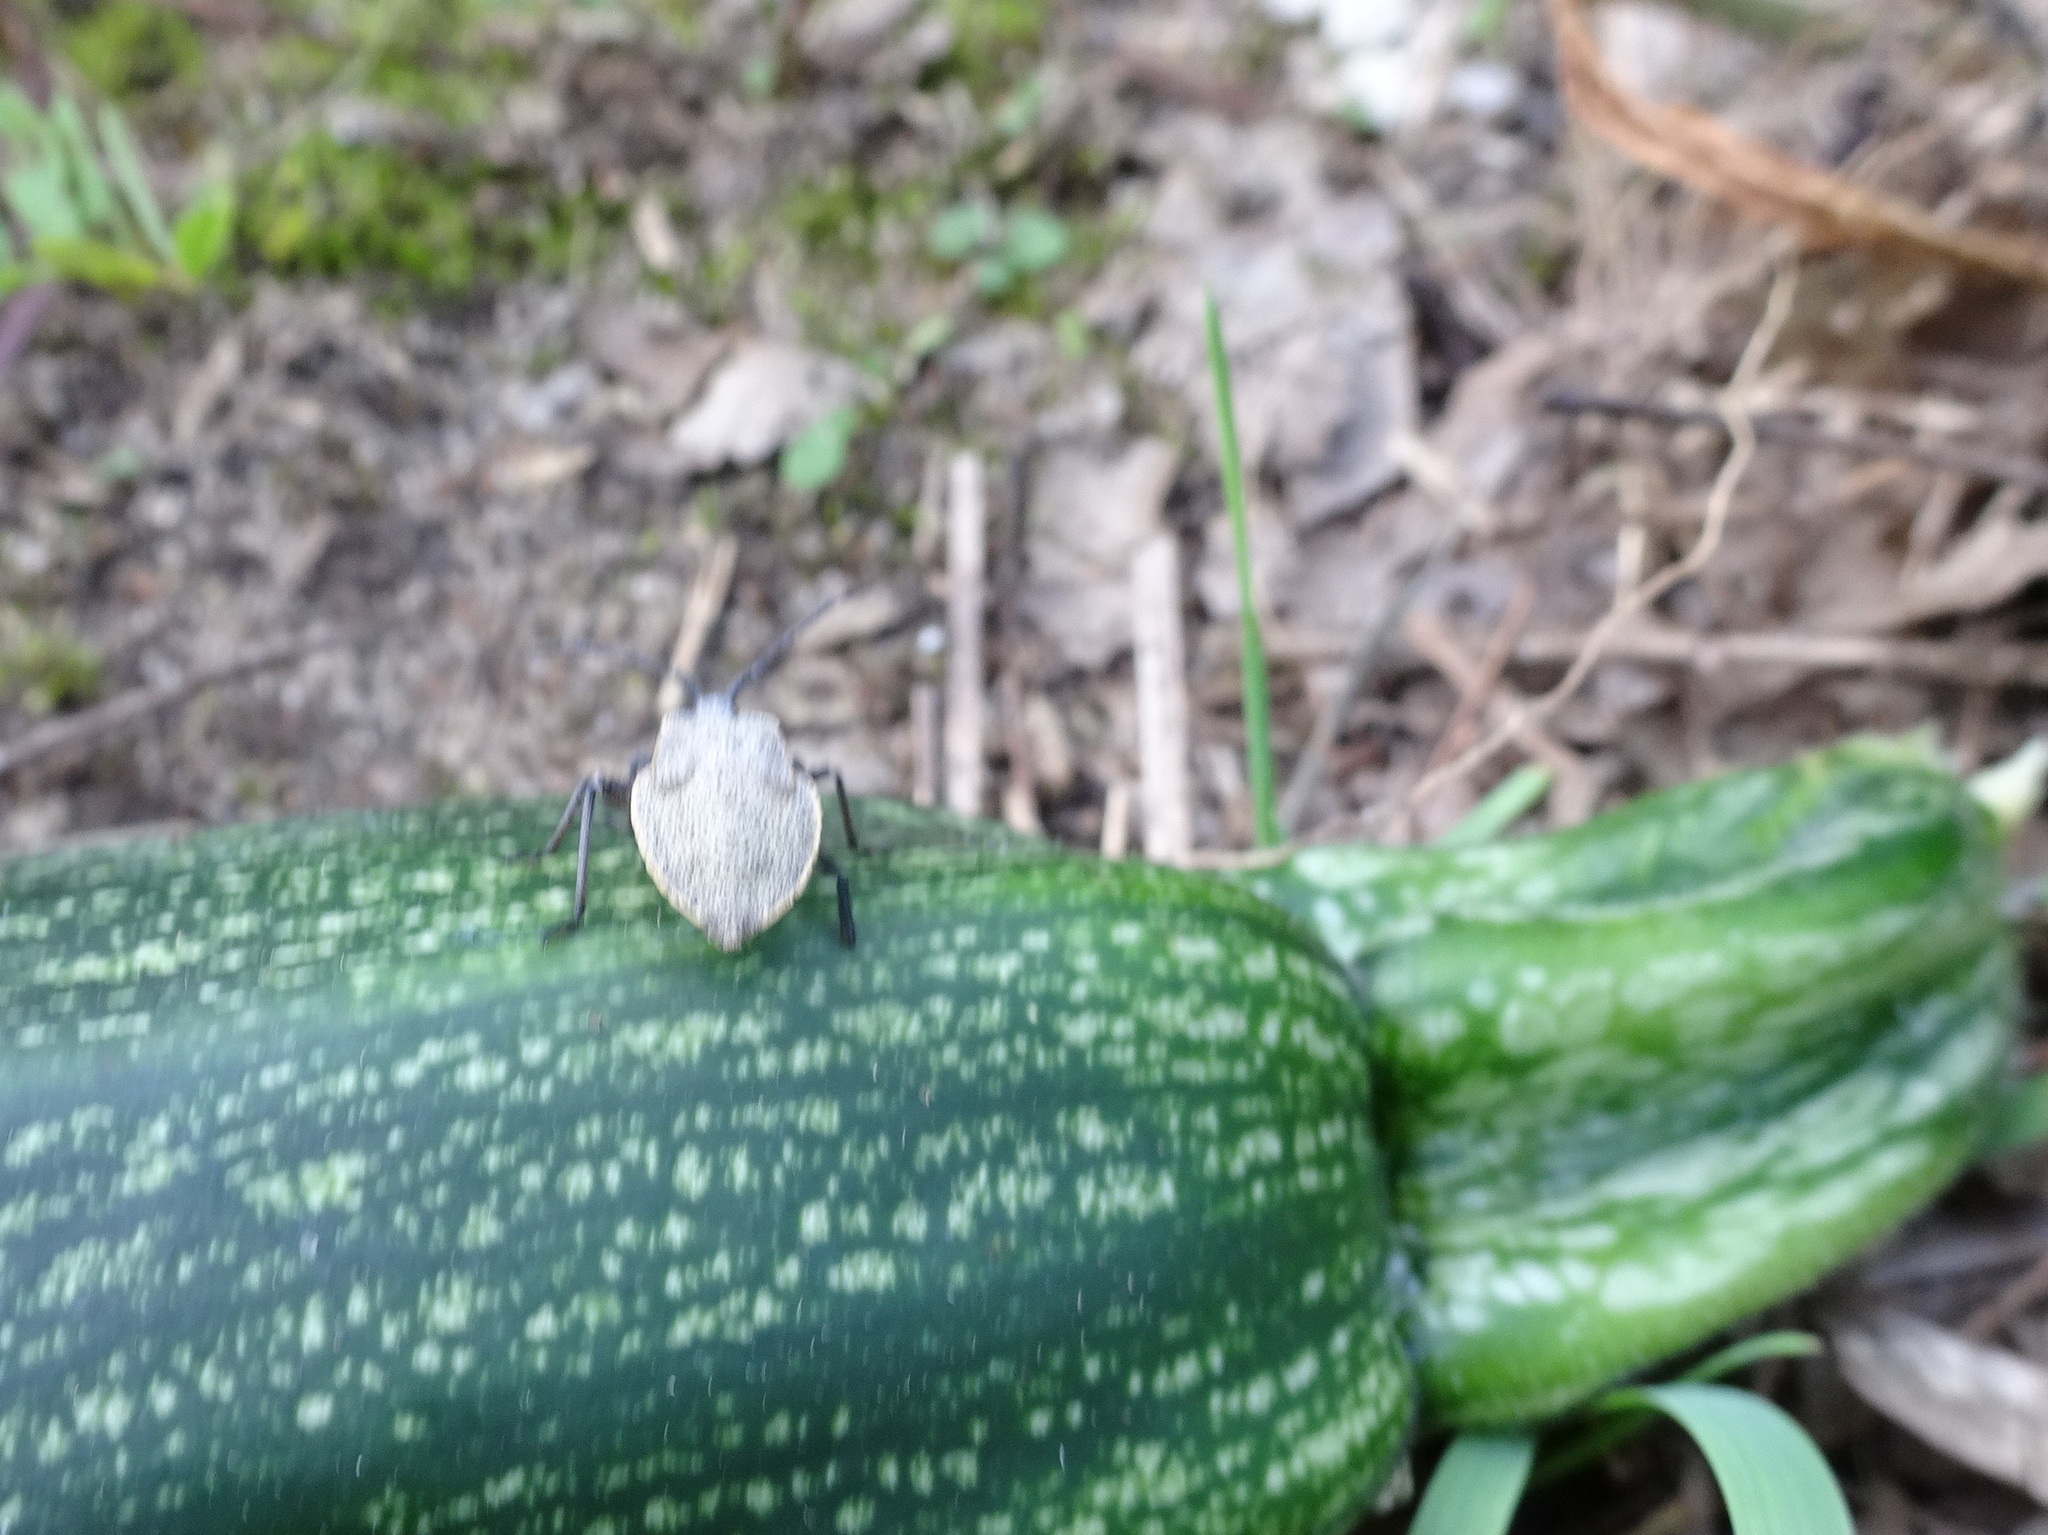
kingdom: Animalia
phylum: Arthropoda
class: Insecta
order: Hemiptera
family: Coreidae
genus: Anasa
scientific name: Anasa tristis
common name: Squash bug
